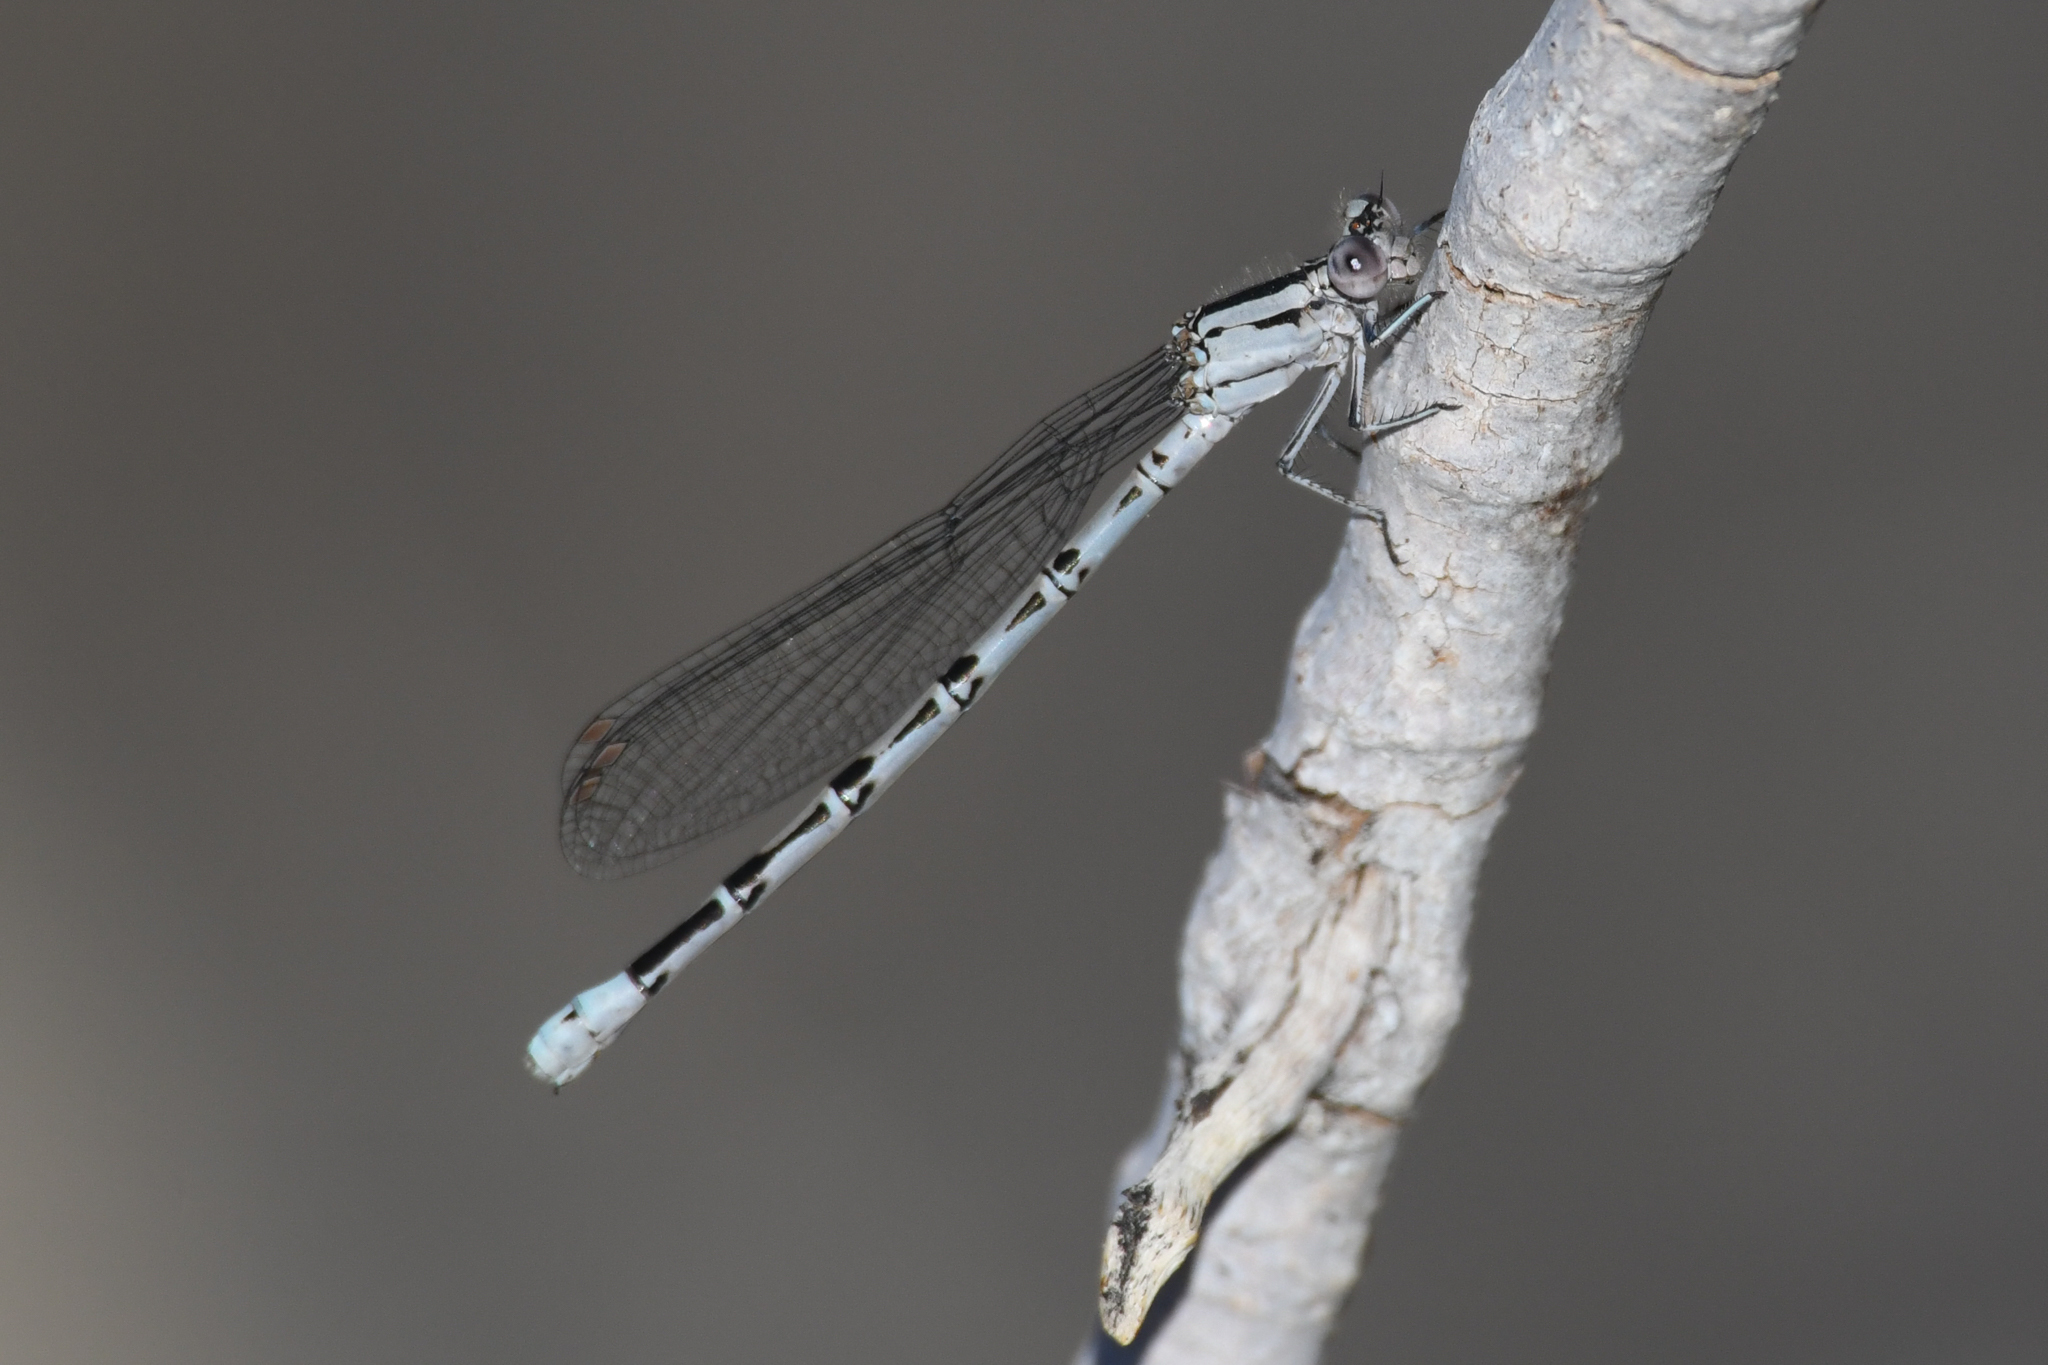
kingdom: Animalia
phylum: Arthropoda
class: Insecta
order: Odonata
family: Coenagrionidae
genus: Argia
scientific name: Argia vivida
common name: Vivid dancer
